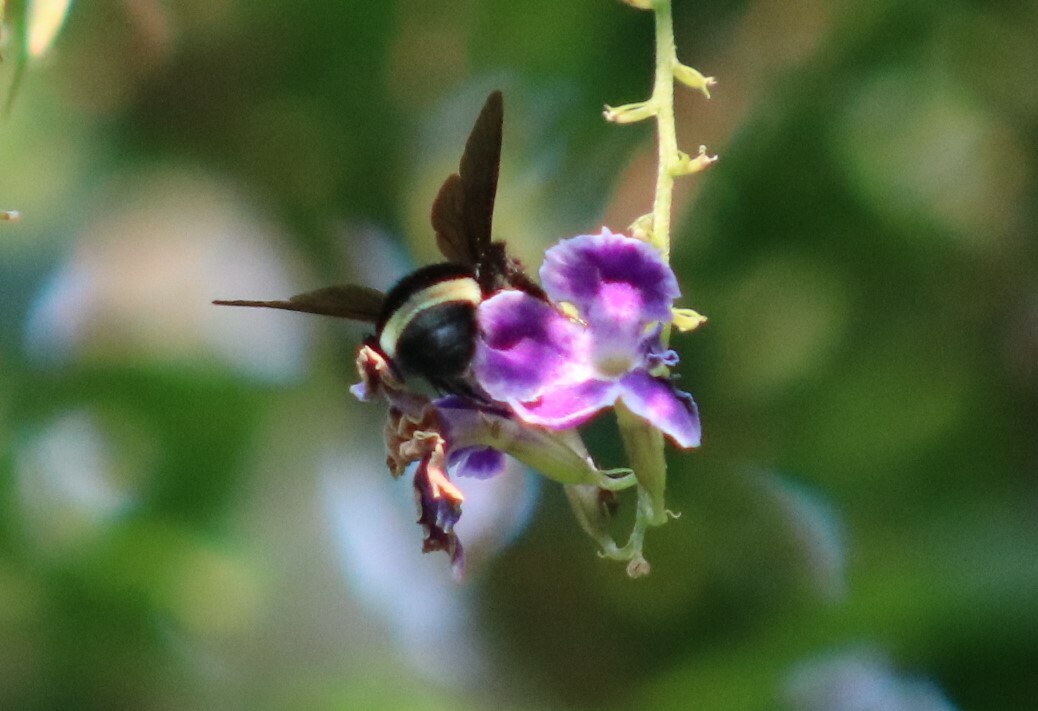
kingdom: Animalia
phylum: Arthropoda
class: Insecta
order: Hymenoptera
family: Apidae
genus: Bombus
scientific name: Bombus mexicanus
